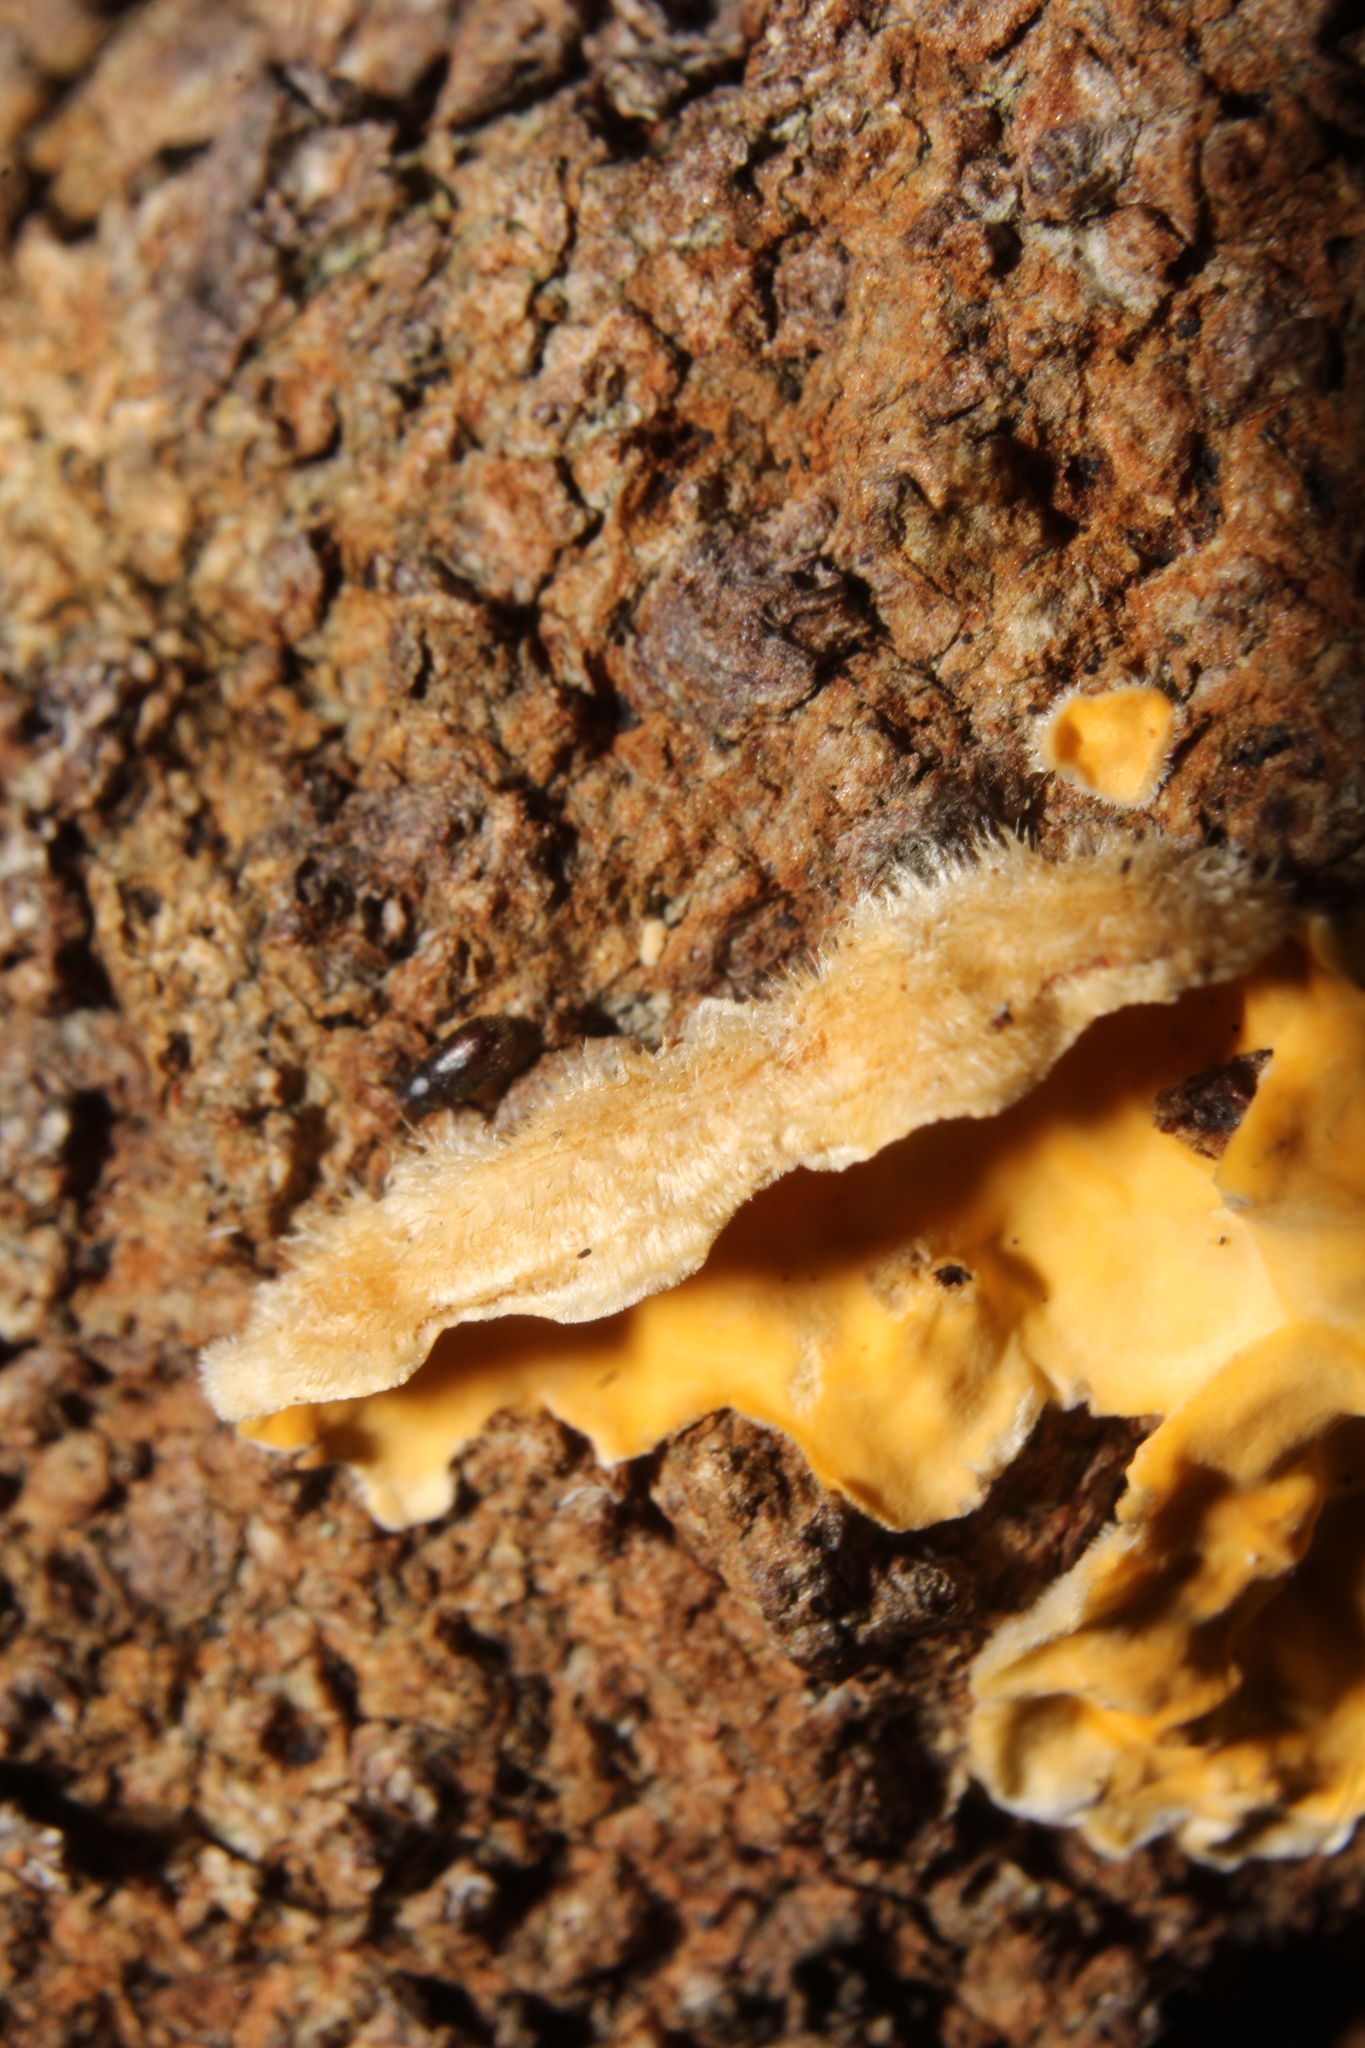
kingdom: Fungi
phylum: Basidiomycota
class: Agaricomycetes
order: Russulales
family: Stereaceae
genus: Stereum
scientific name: Stereum hirsutum
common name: Hairy curtain crust
